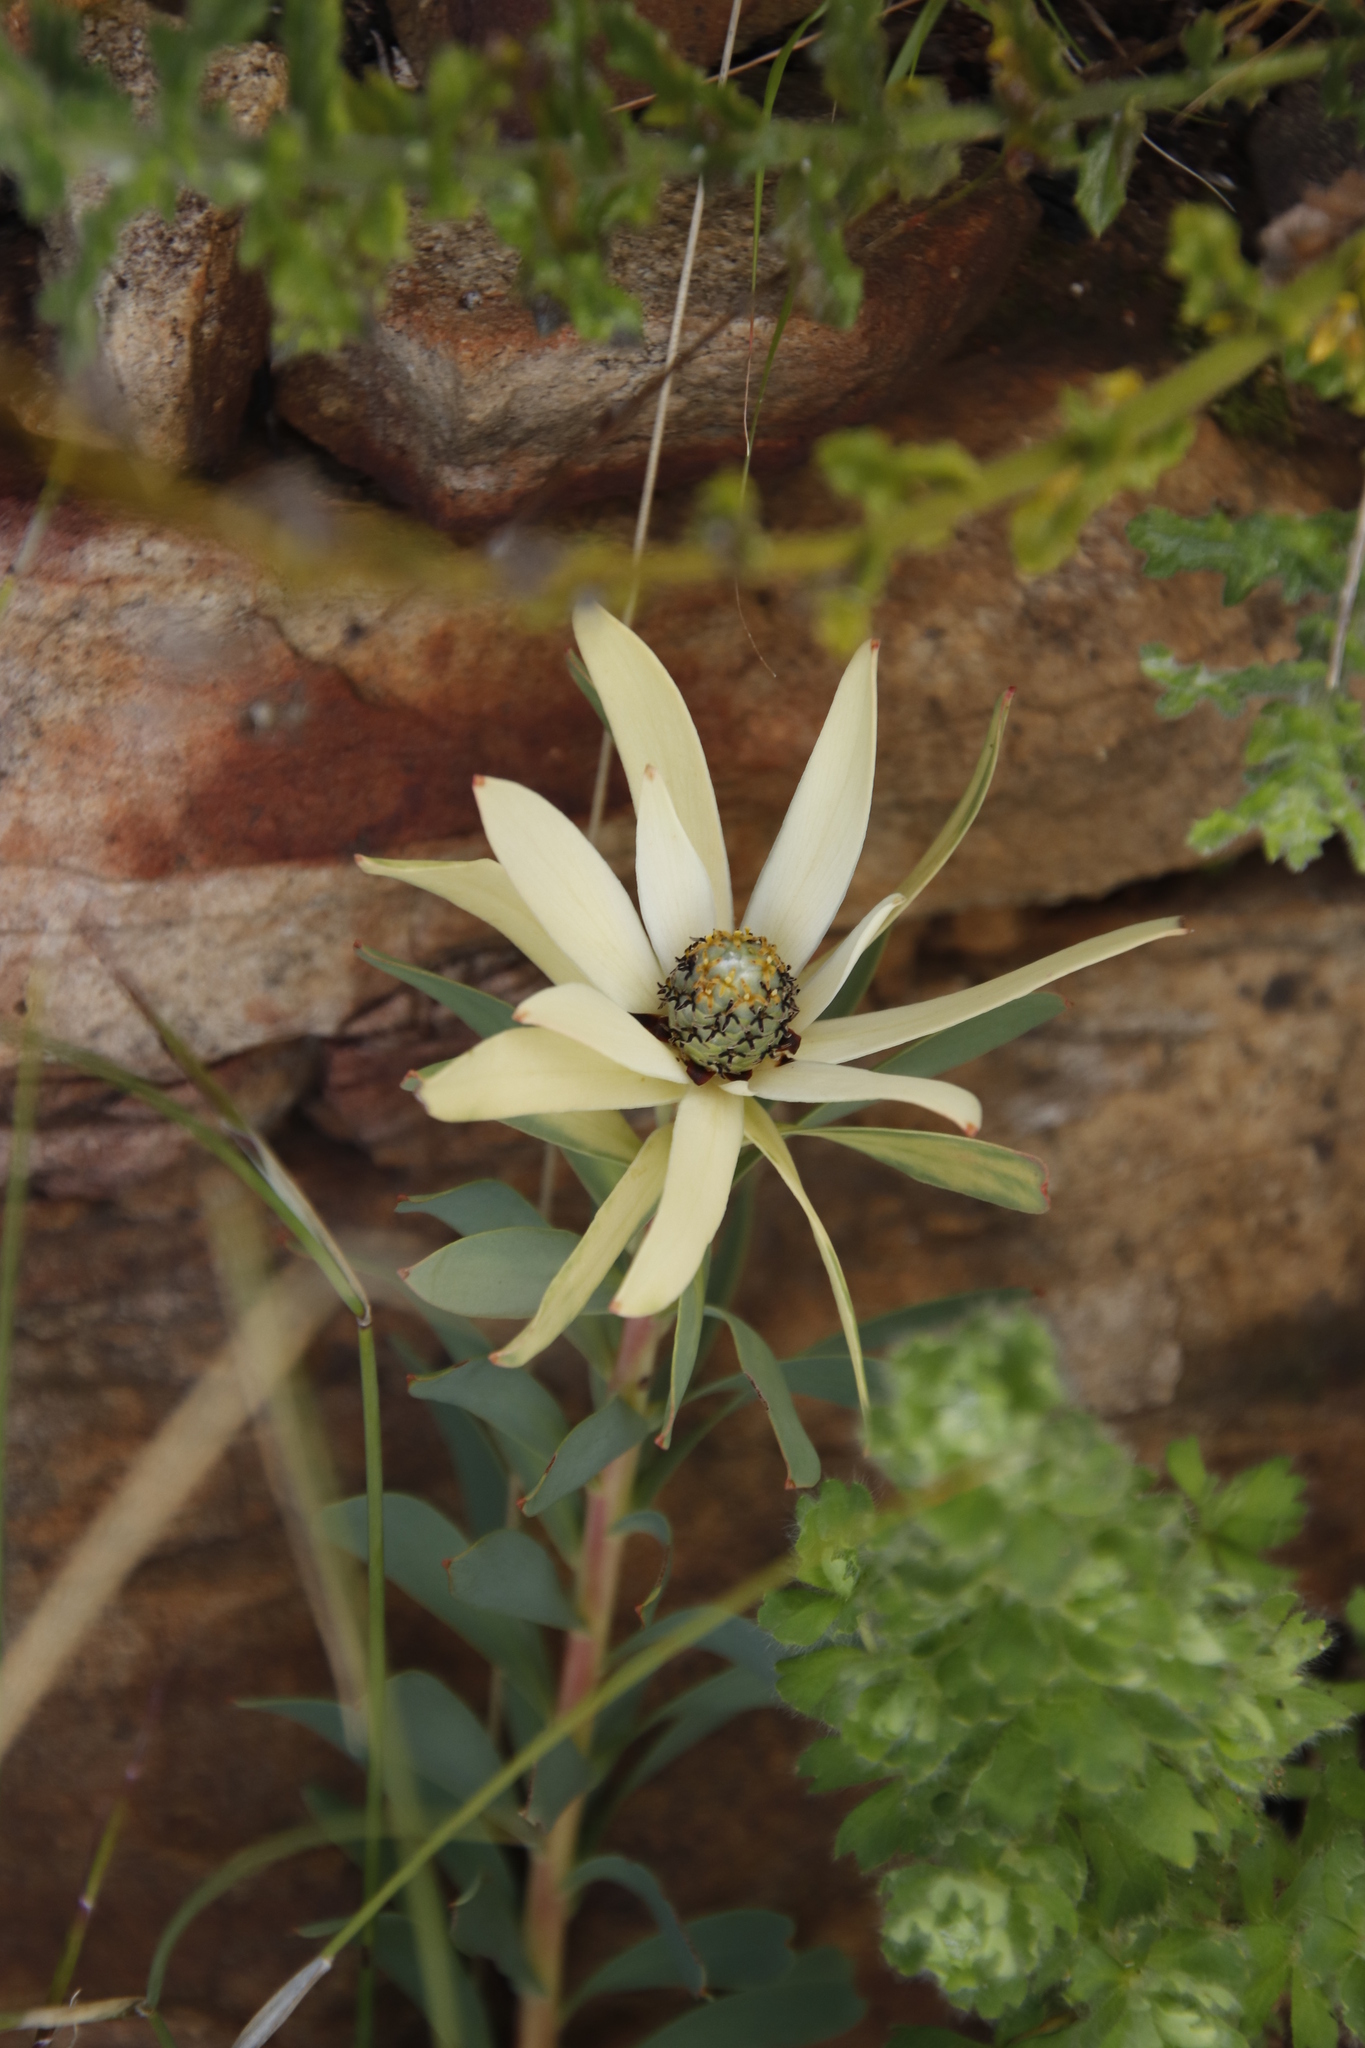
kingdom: Plantae
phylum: Tracheophyta
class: Magnoliopsida
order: Proteales
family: Proteaceae
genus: Leucadendron
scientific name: Leucadendron salignum
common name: Common sunshine conebush
